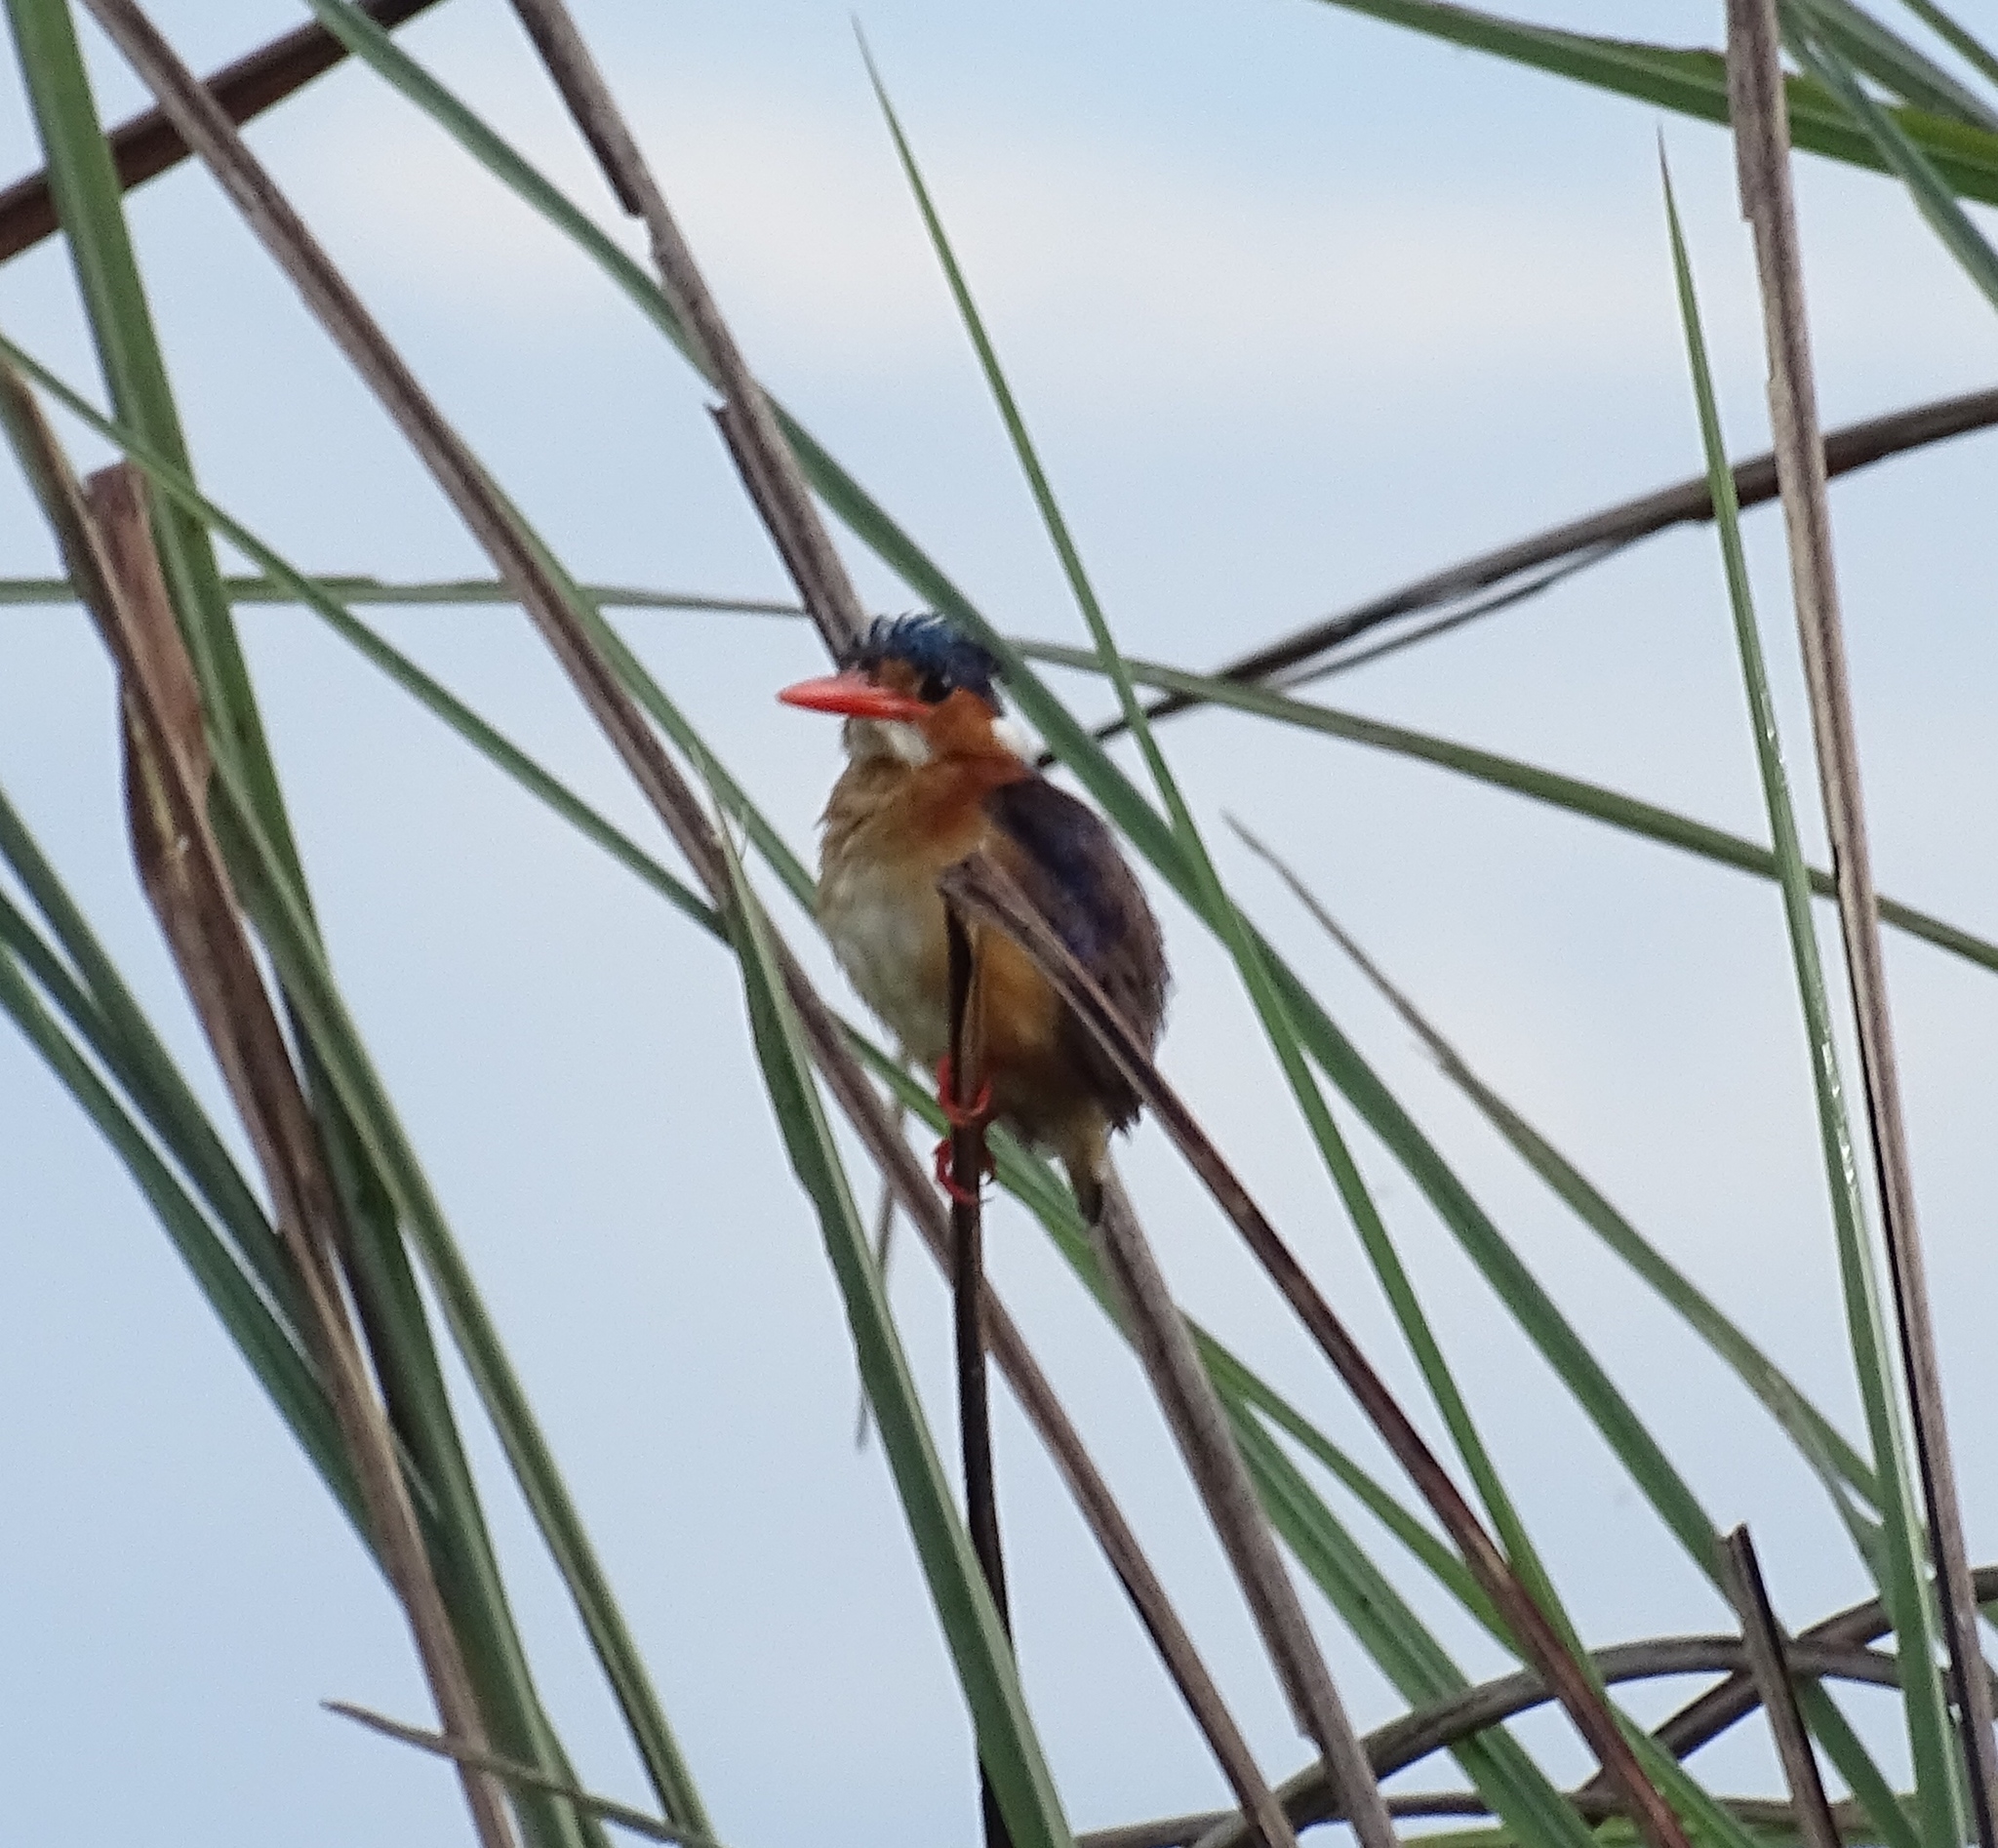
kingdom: Animalia
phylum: Chordata
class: Aves
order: Coraciiformes
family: Alcedinidae
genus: Corythornis
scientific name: Corythornis cristatus
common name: Malachite kingfisher
